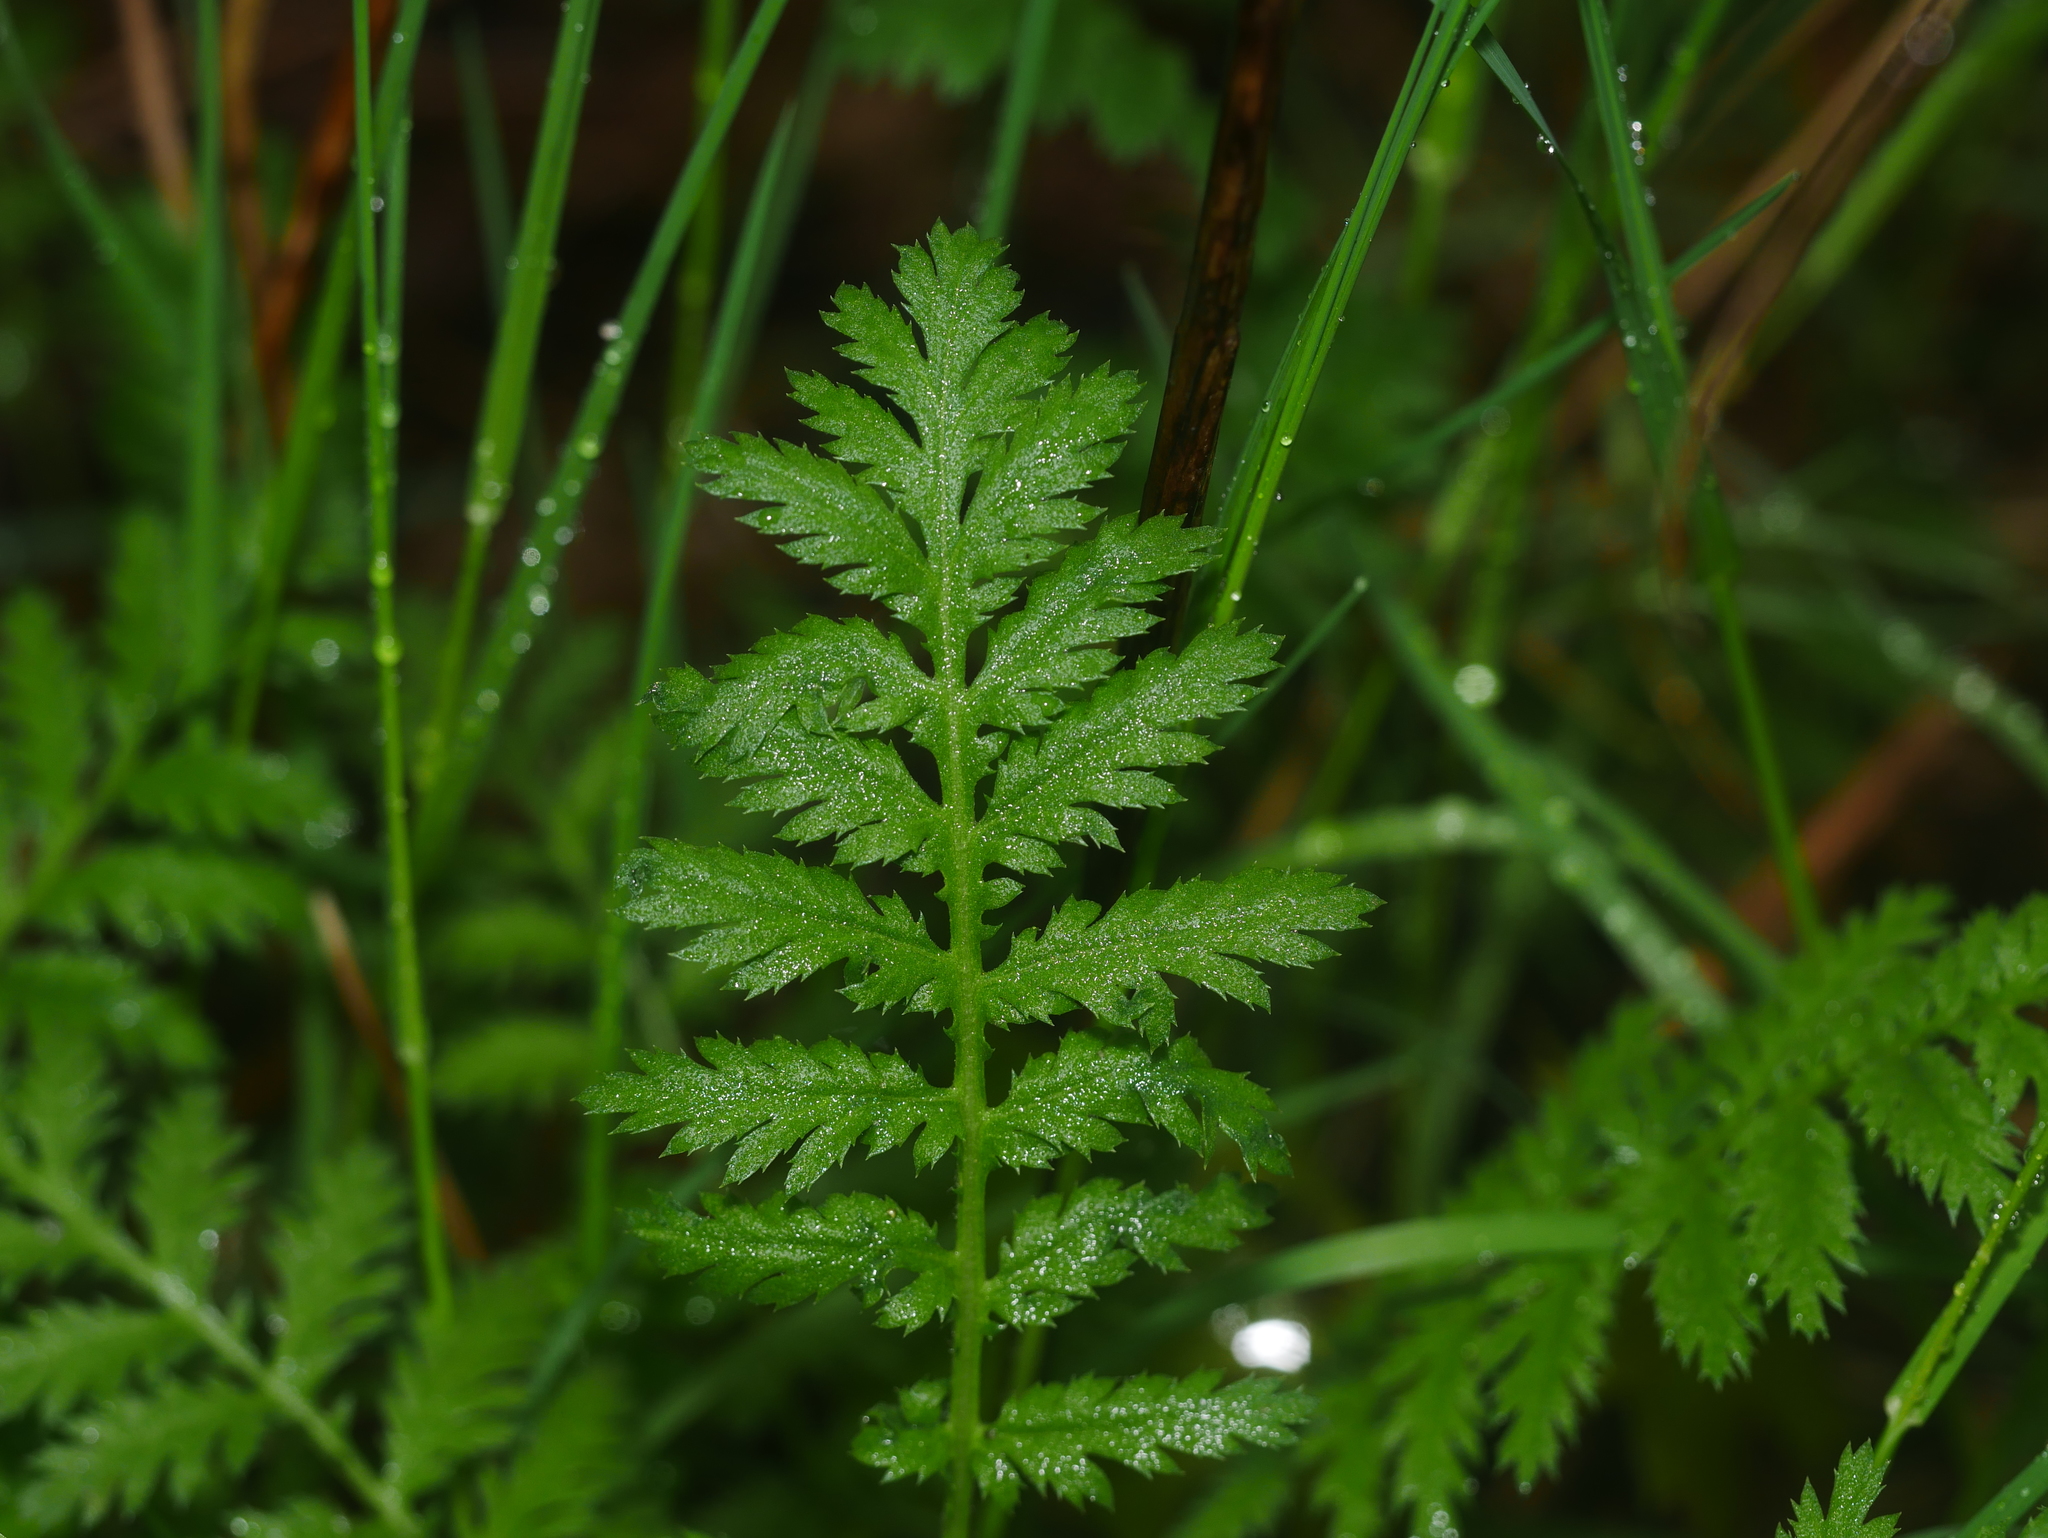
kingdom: Plantae
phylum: Tracheophyta
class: Magnoliopsida
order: Asterales
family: Asteraceae
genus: Tanacetum
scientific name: Tanacetum vulgare
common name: Common tansy
